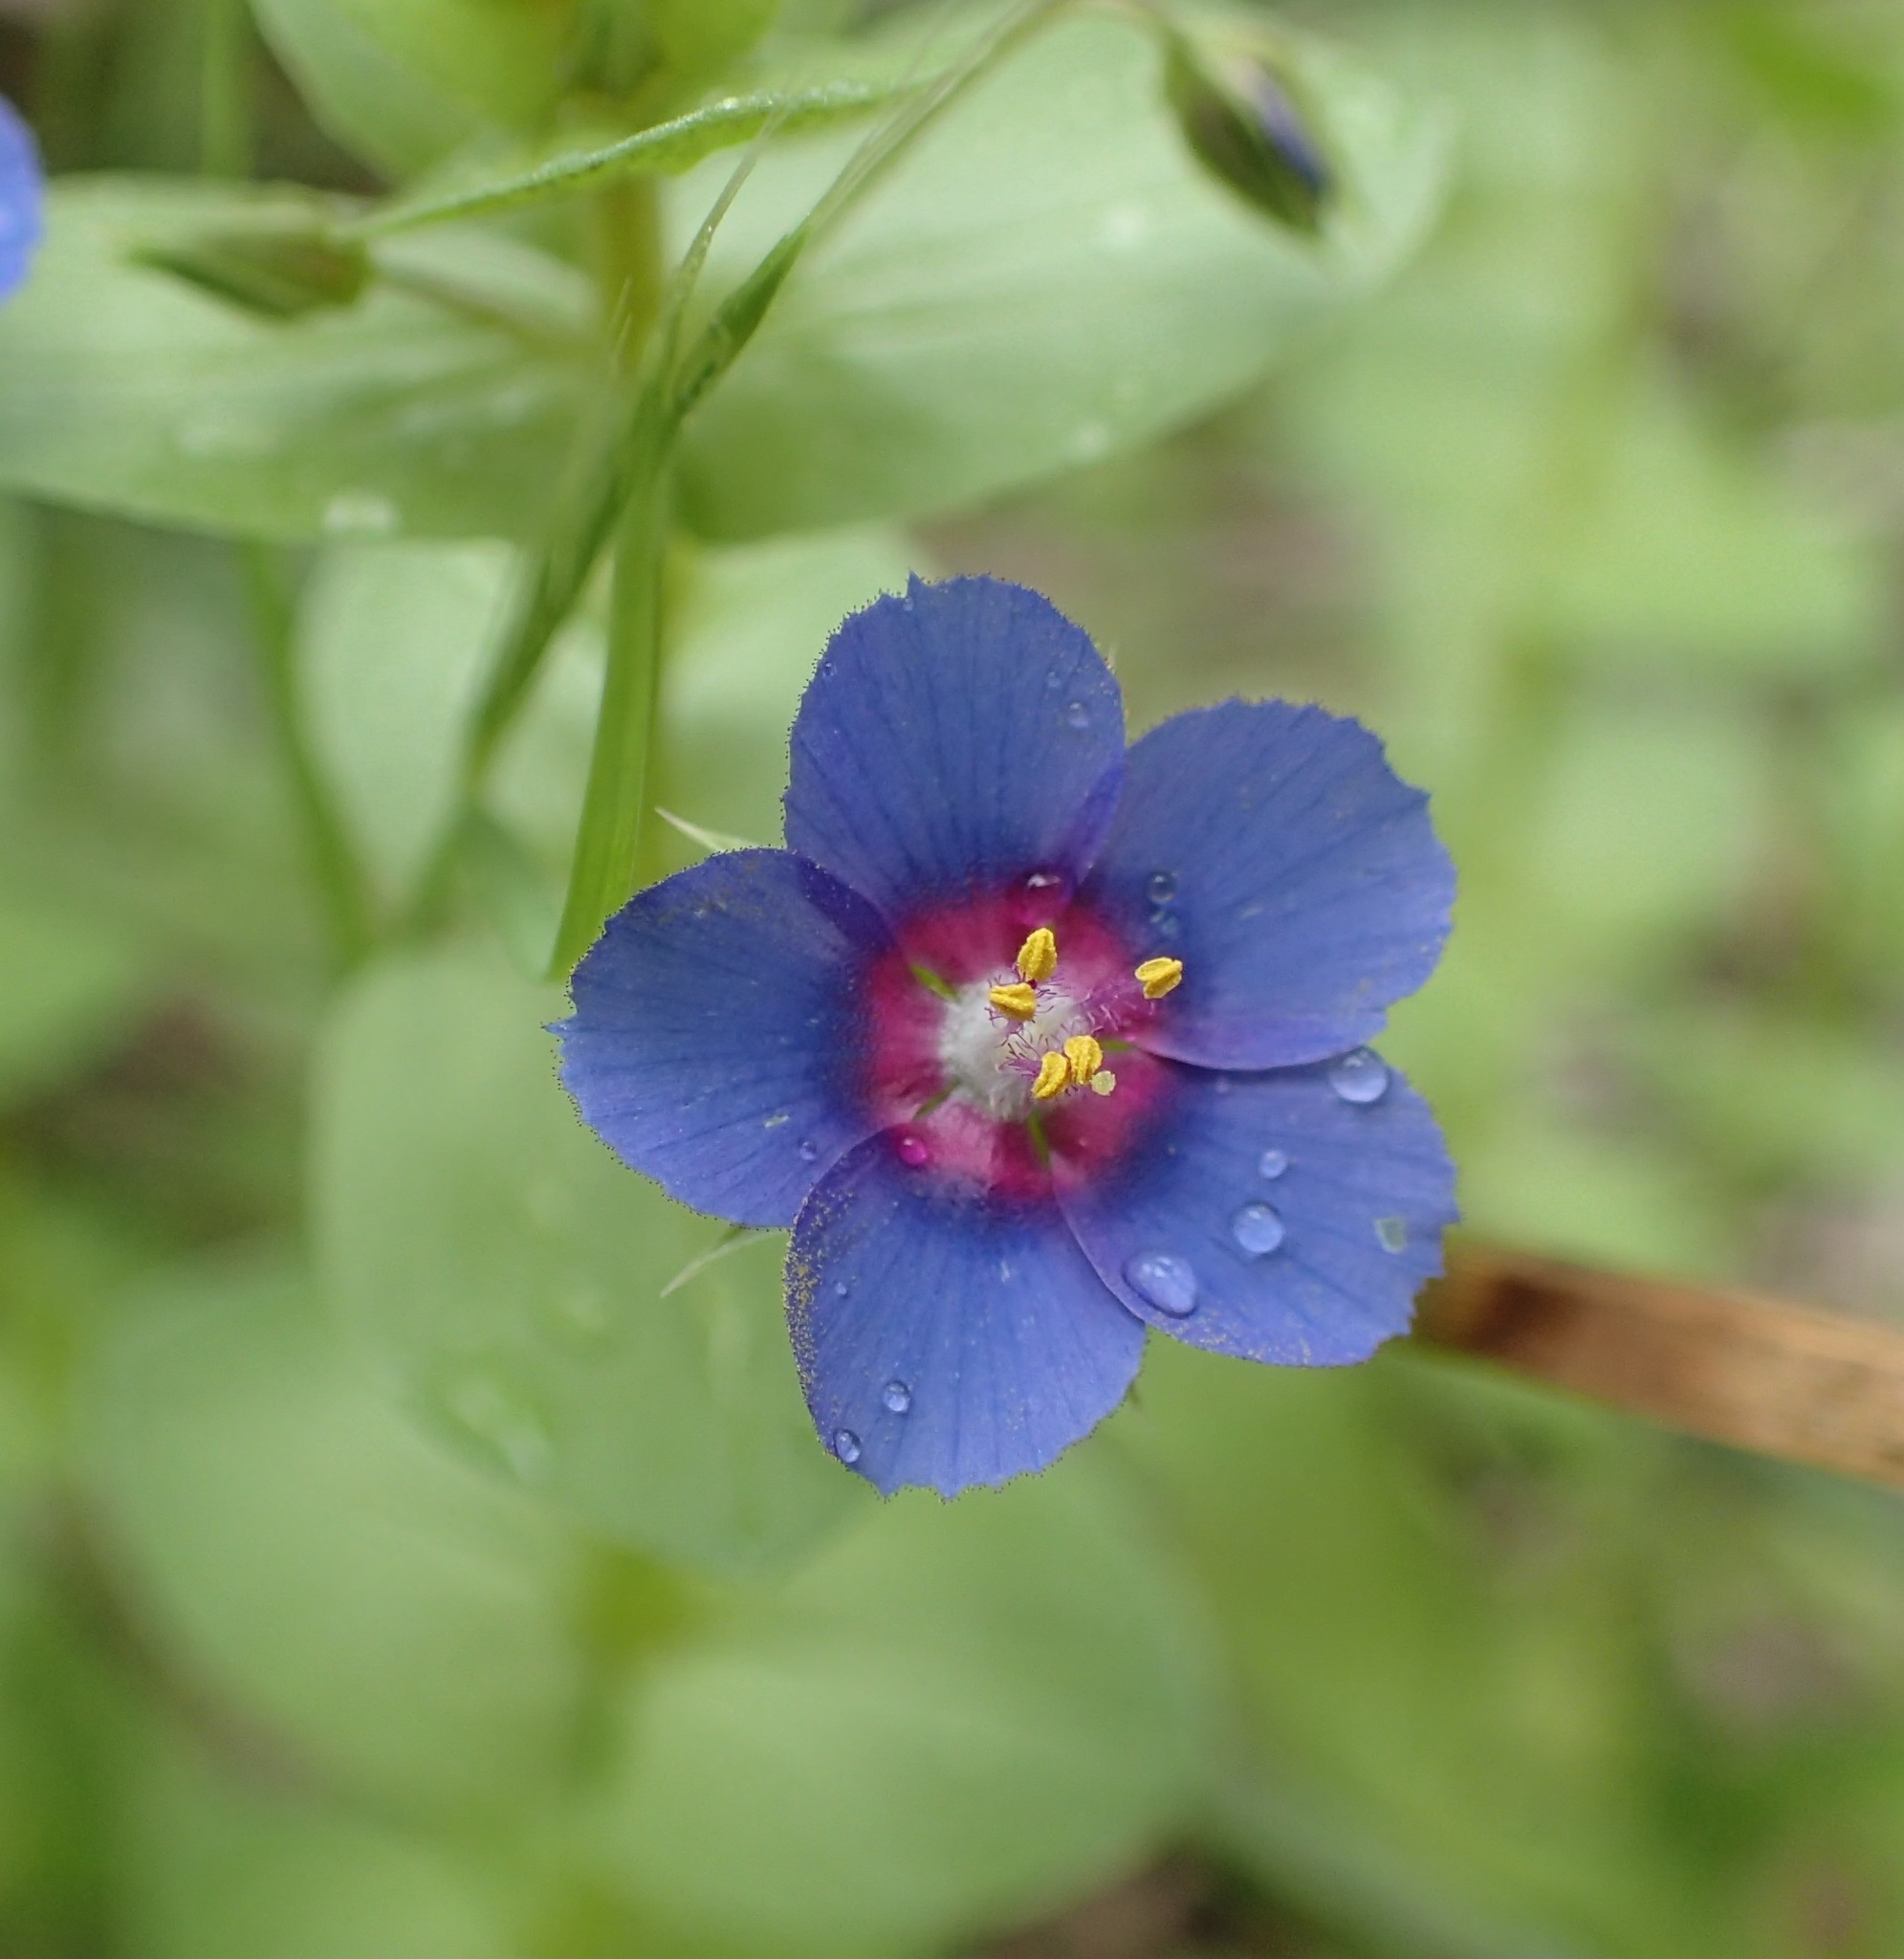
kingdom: Plantae
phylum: Tracheophyta
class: Magnoliopsida
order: Ericales
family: Primulaceae
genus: Lysimachia
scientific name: Lysimachia loeflingii
